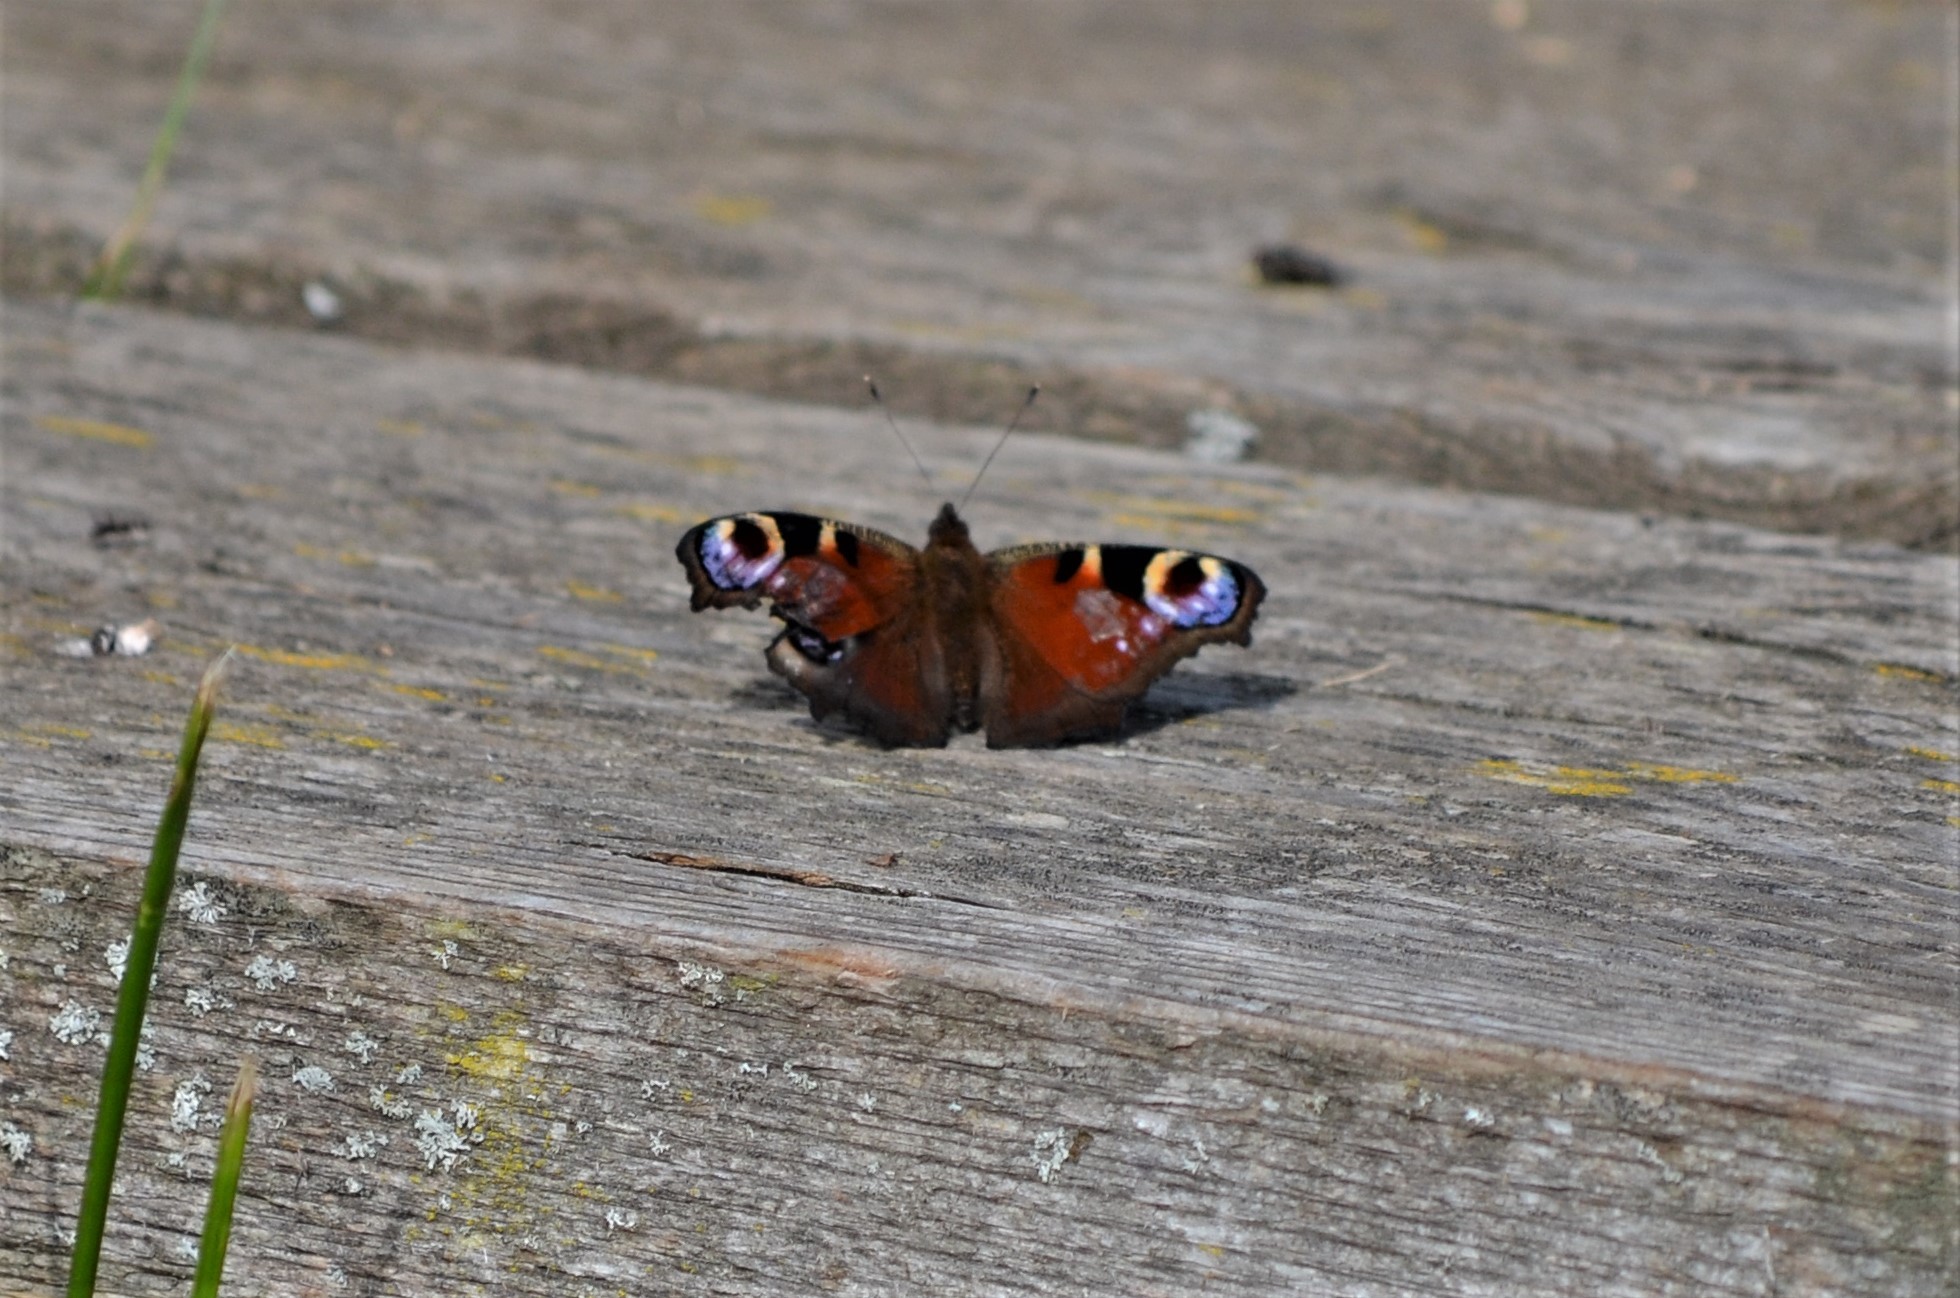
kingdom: Animalia
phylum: Arthropoda
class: Insecta
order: Lepidoptera
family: Nymphalidae
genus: Aglais
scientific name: Aglais io
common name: Peacock
